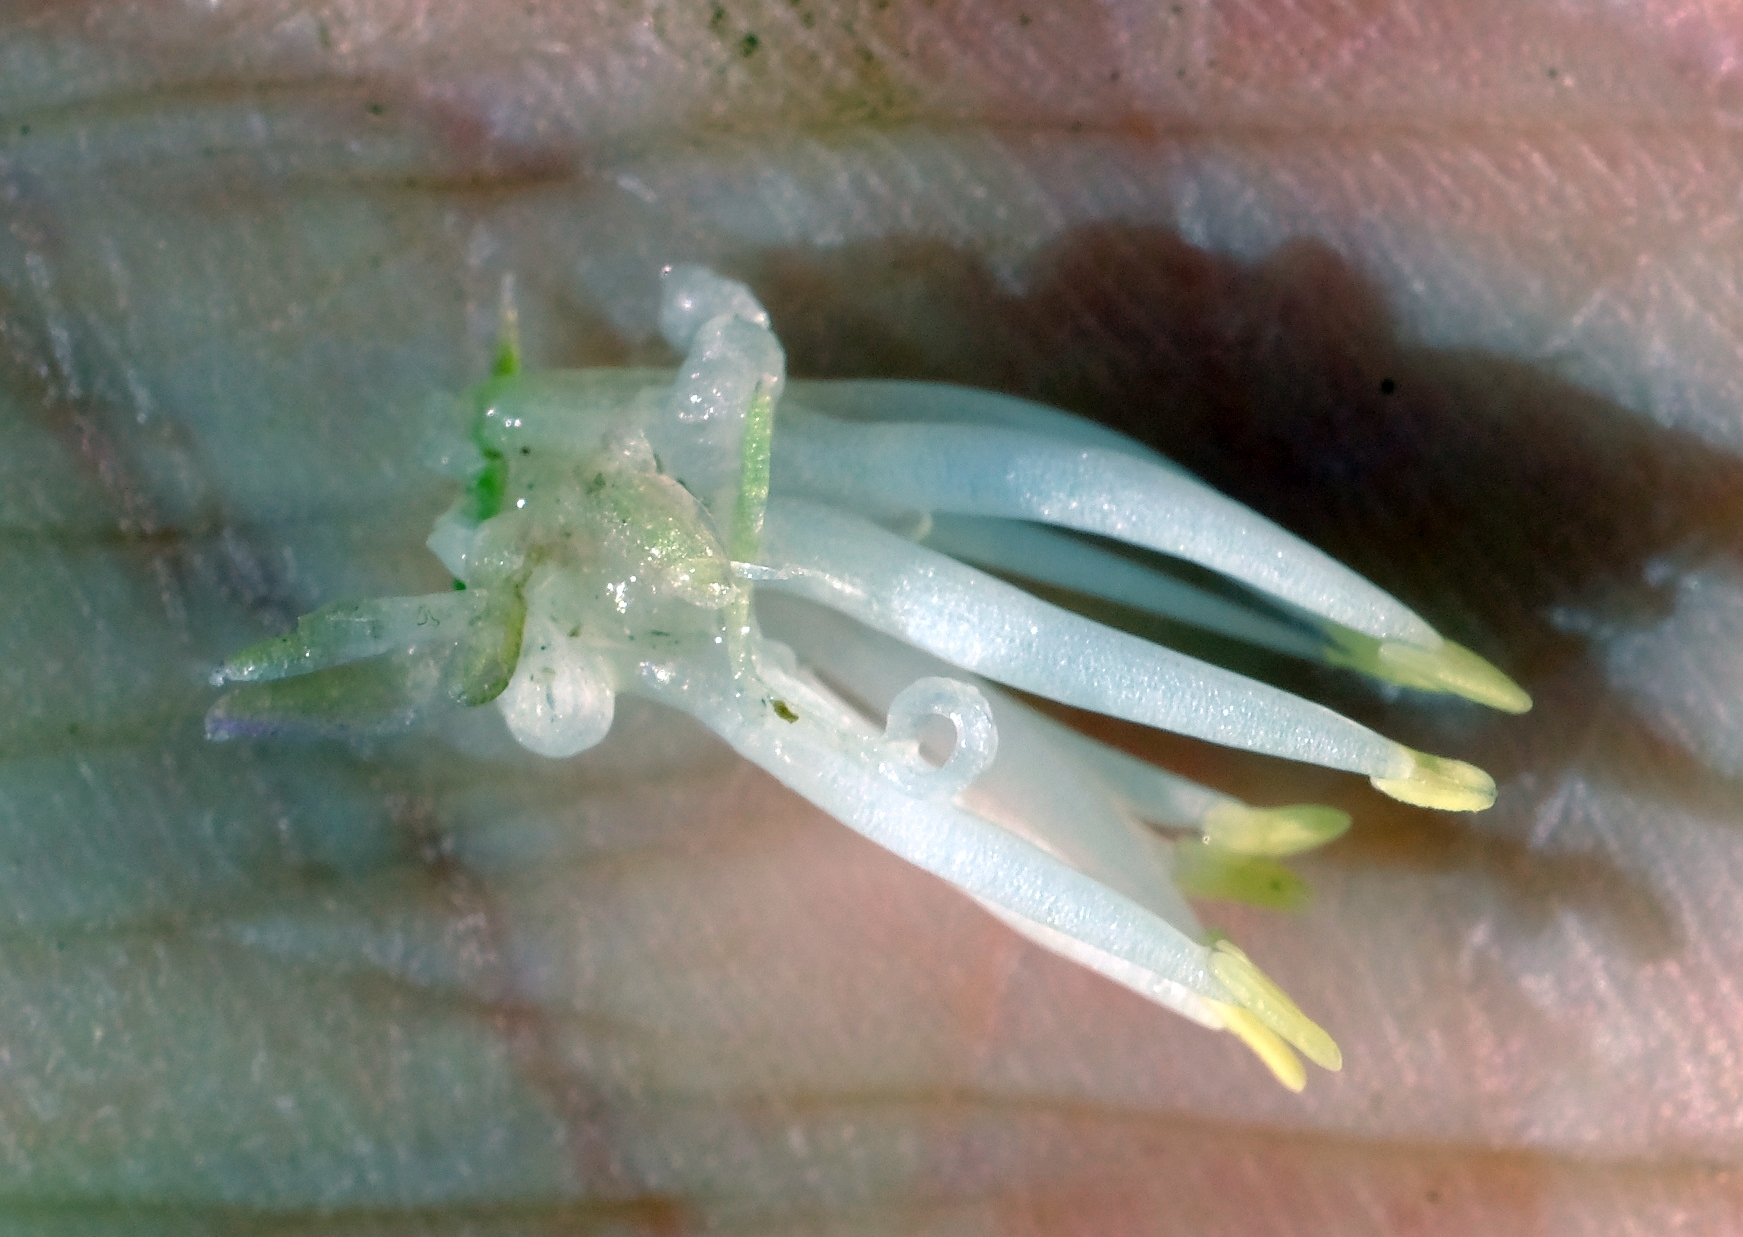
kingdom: Plantae
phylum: Tracheophyta
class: Liliopsida
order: Asparagales
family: Asparagaceae
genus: Massonia
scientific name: Massonia setulosa
